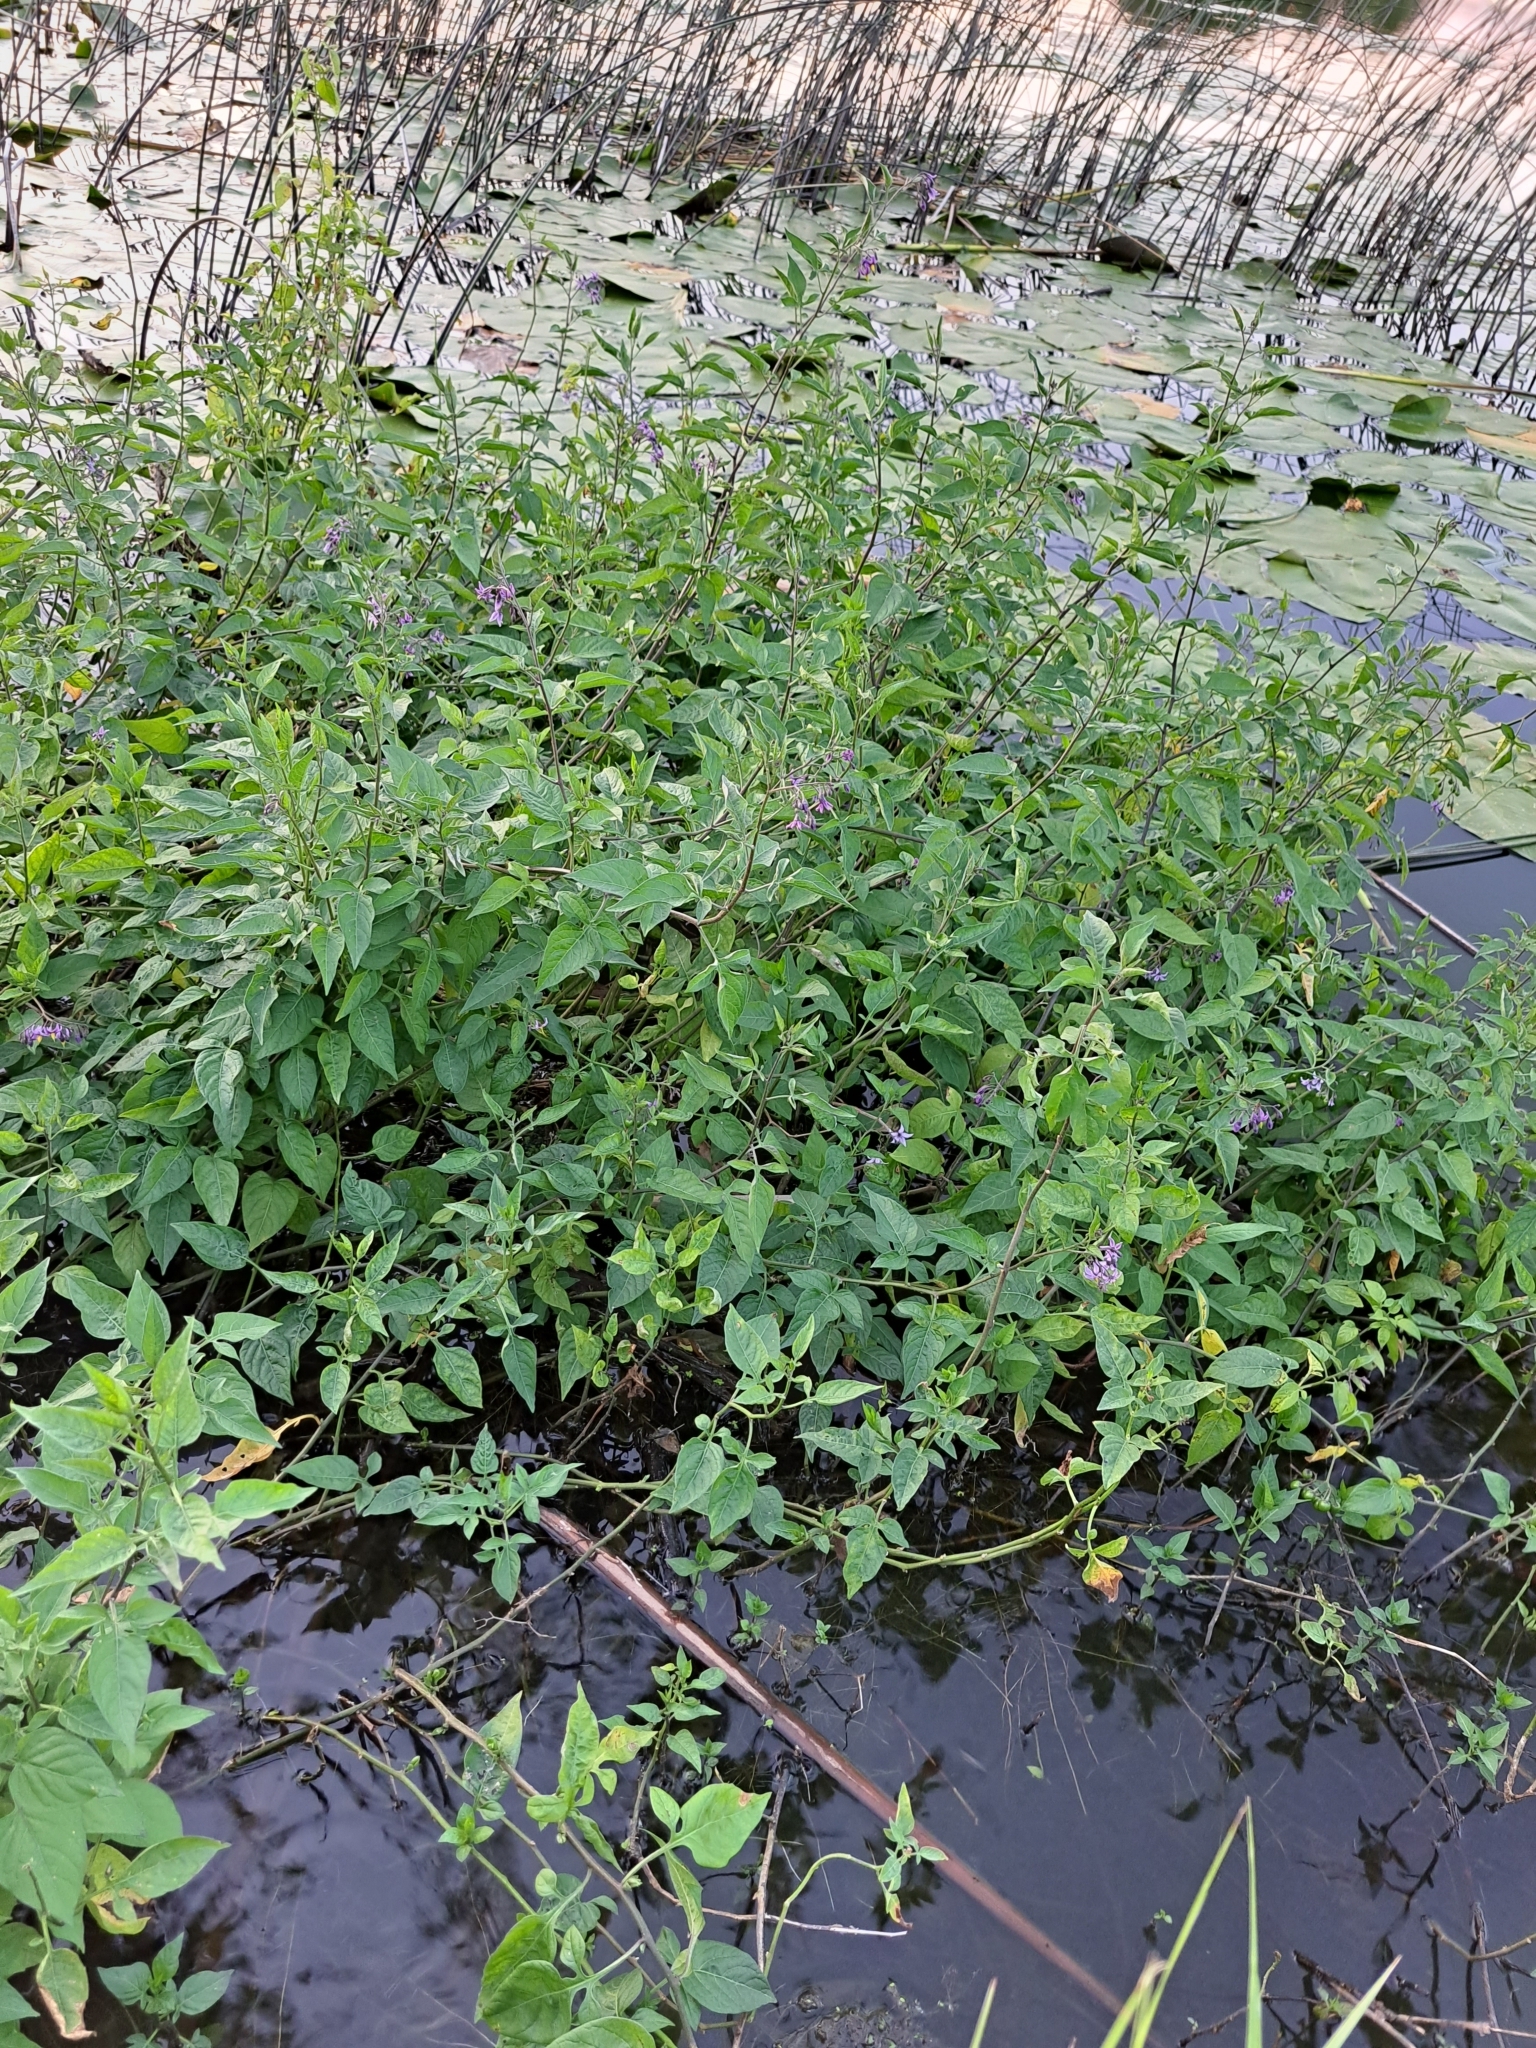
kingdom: Plantae
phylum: Tracheophyta
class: Magnoliopsida
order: Solanales
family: Solanaceae
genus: Solanum
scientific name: Solanum dulcamara
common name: Climbing nightshade
